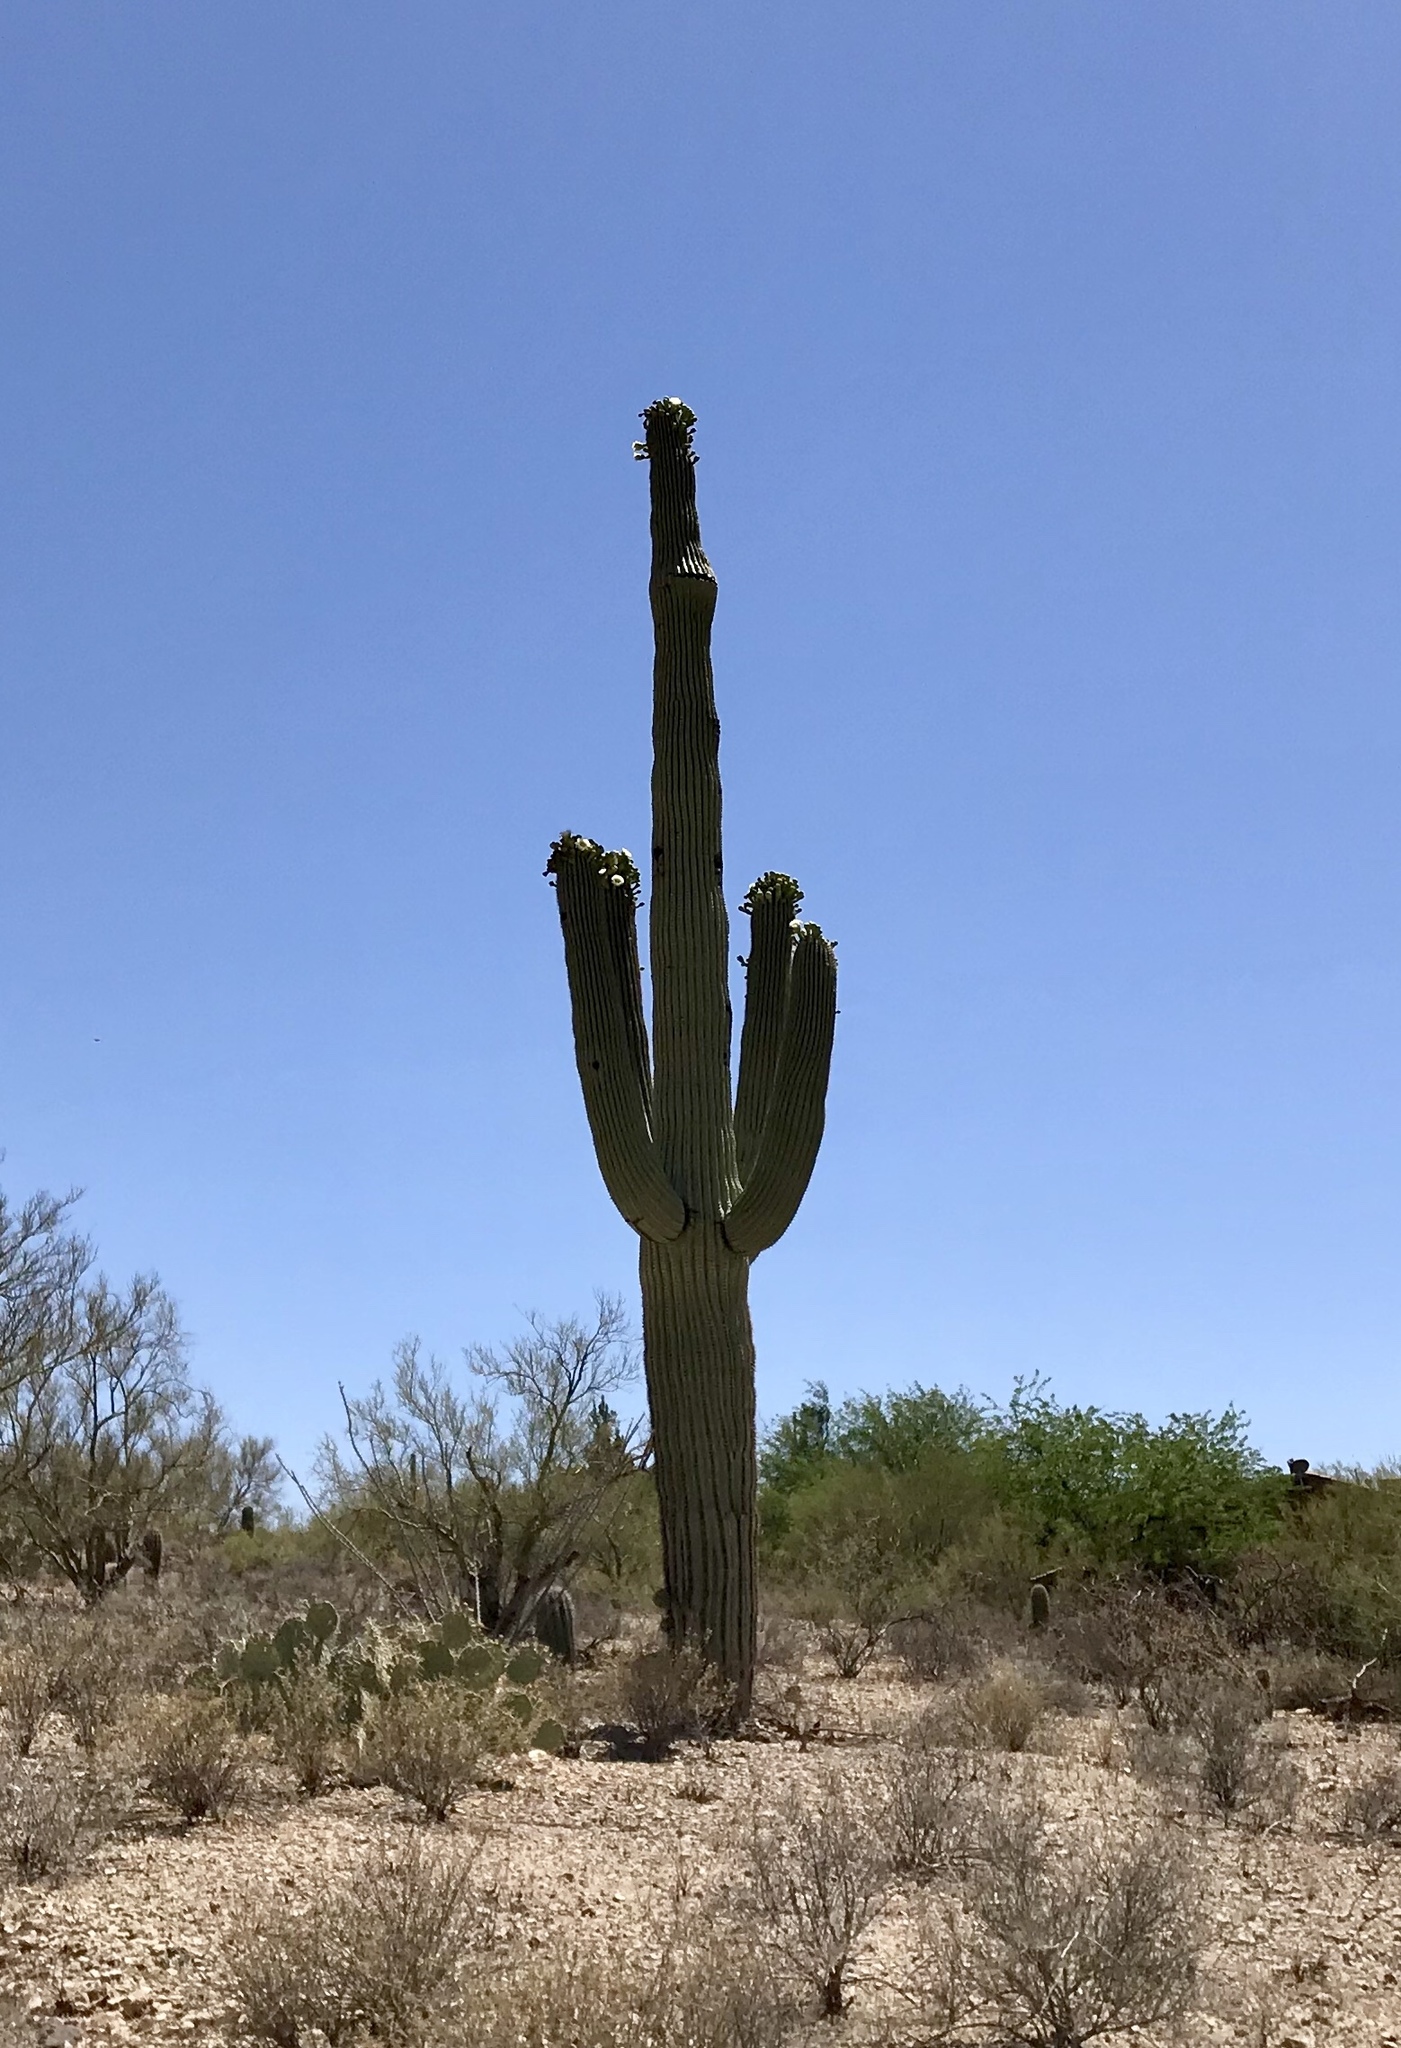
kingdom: Plantae
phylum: Tracheophyta
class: Magnoliopsida
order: Caryophyllales
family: Cactaceae
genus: Carnegiea
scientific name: Carnegiea gigantea
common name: Saguaro
